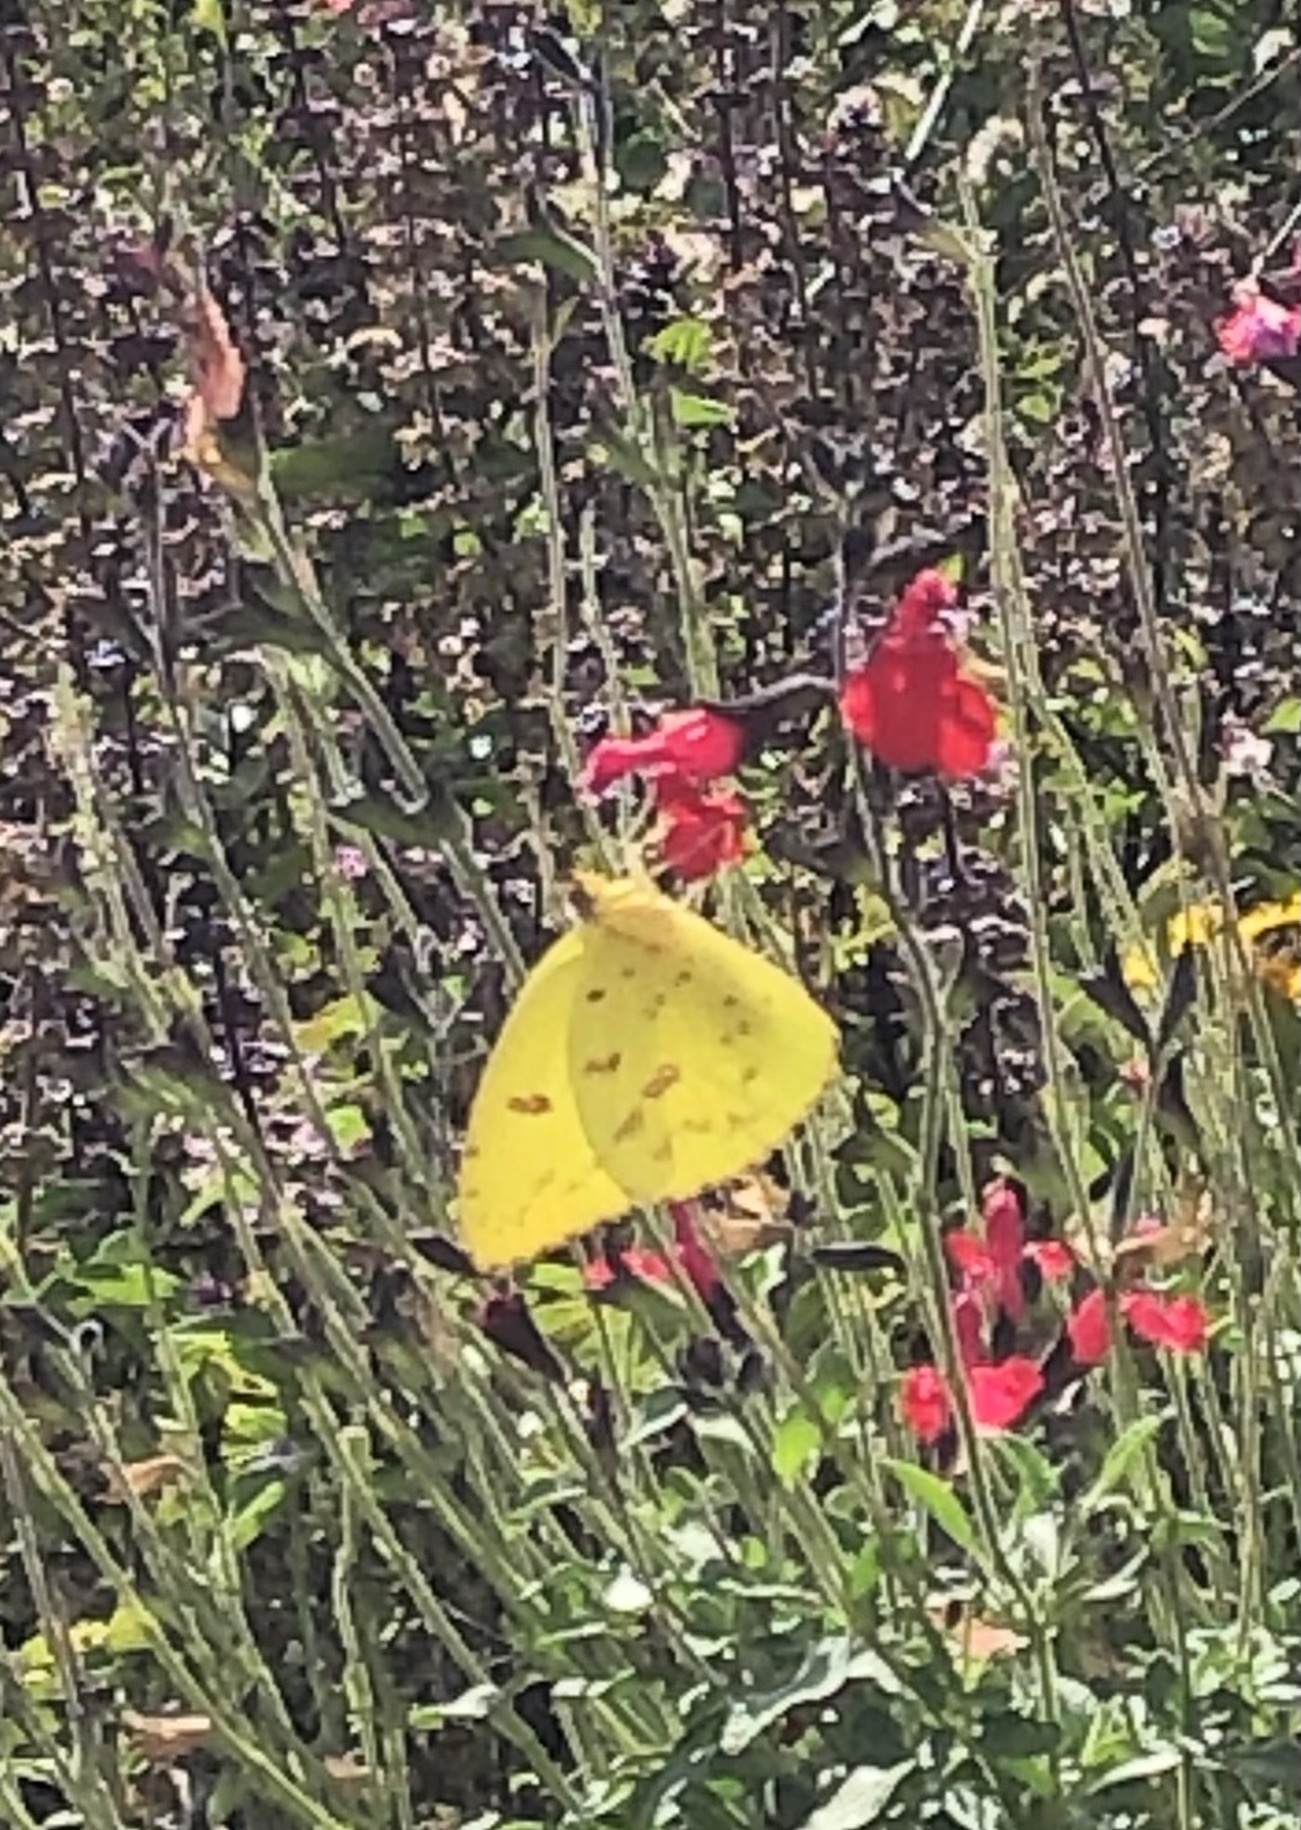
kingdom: Animalia
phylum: Arthropoda
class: Insecta
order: Lepidoptera
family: Pieridae
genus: Phoebis
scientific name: Phoebis sennae
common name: Cloudless sulphur
